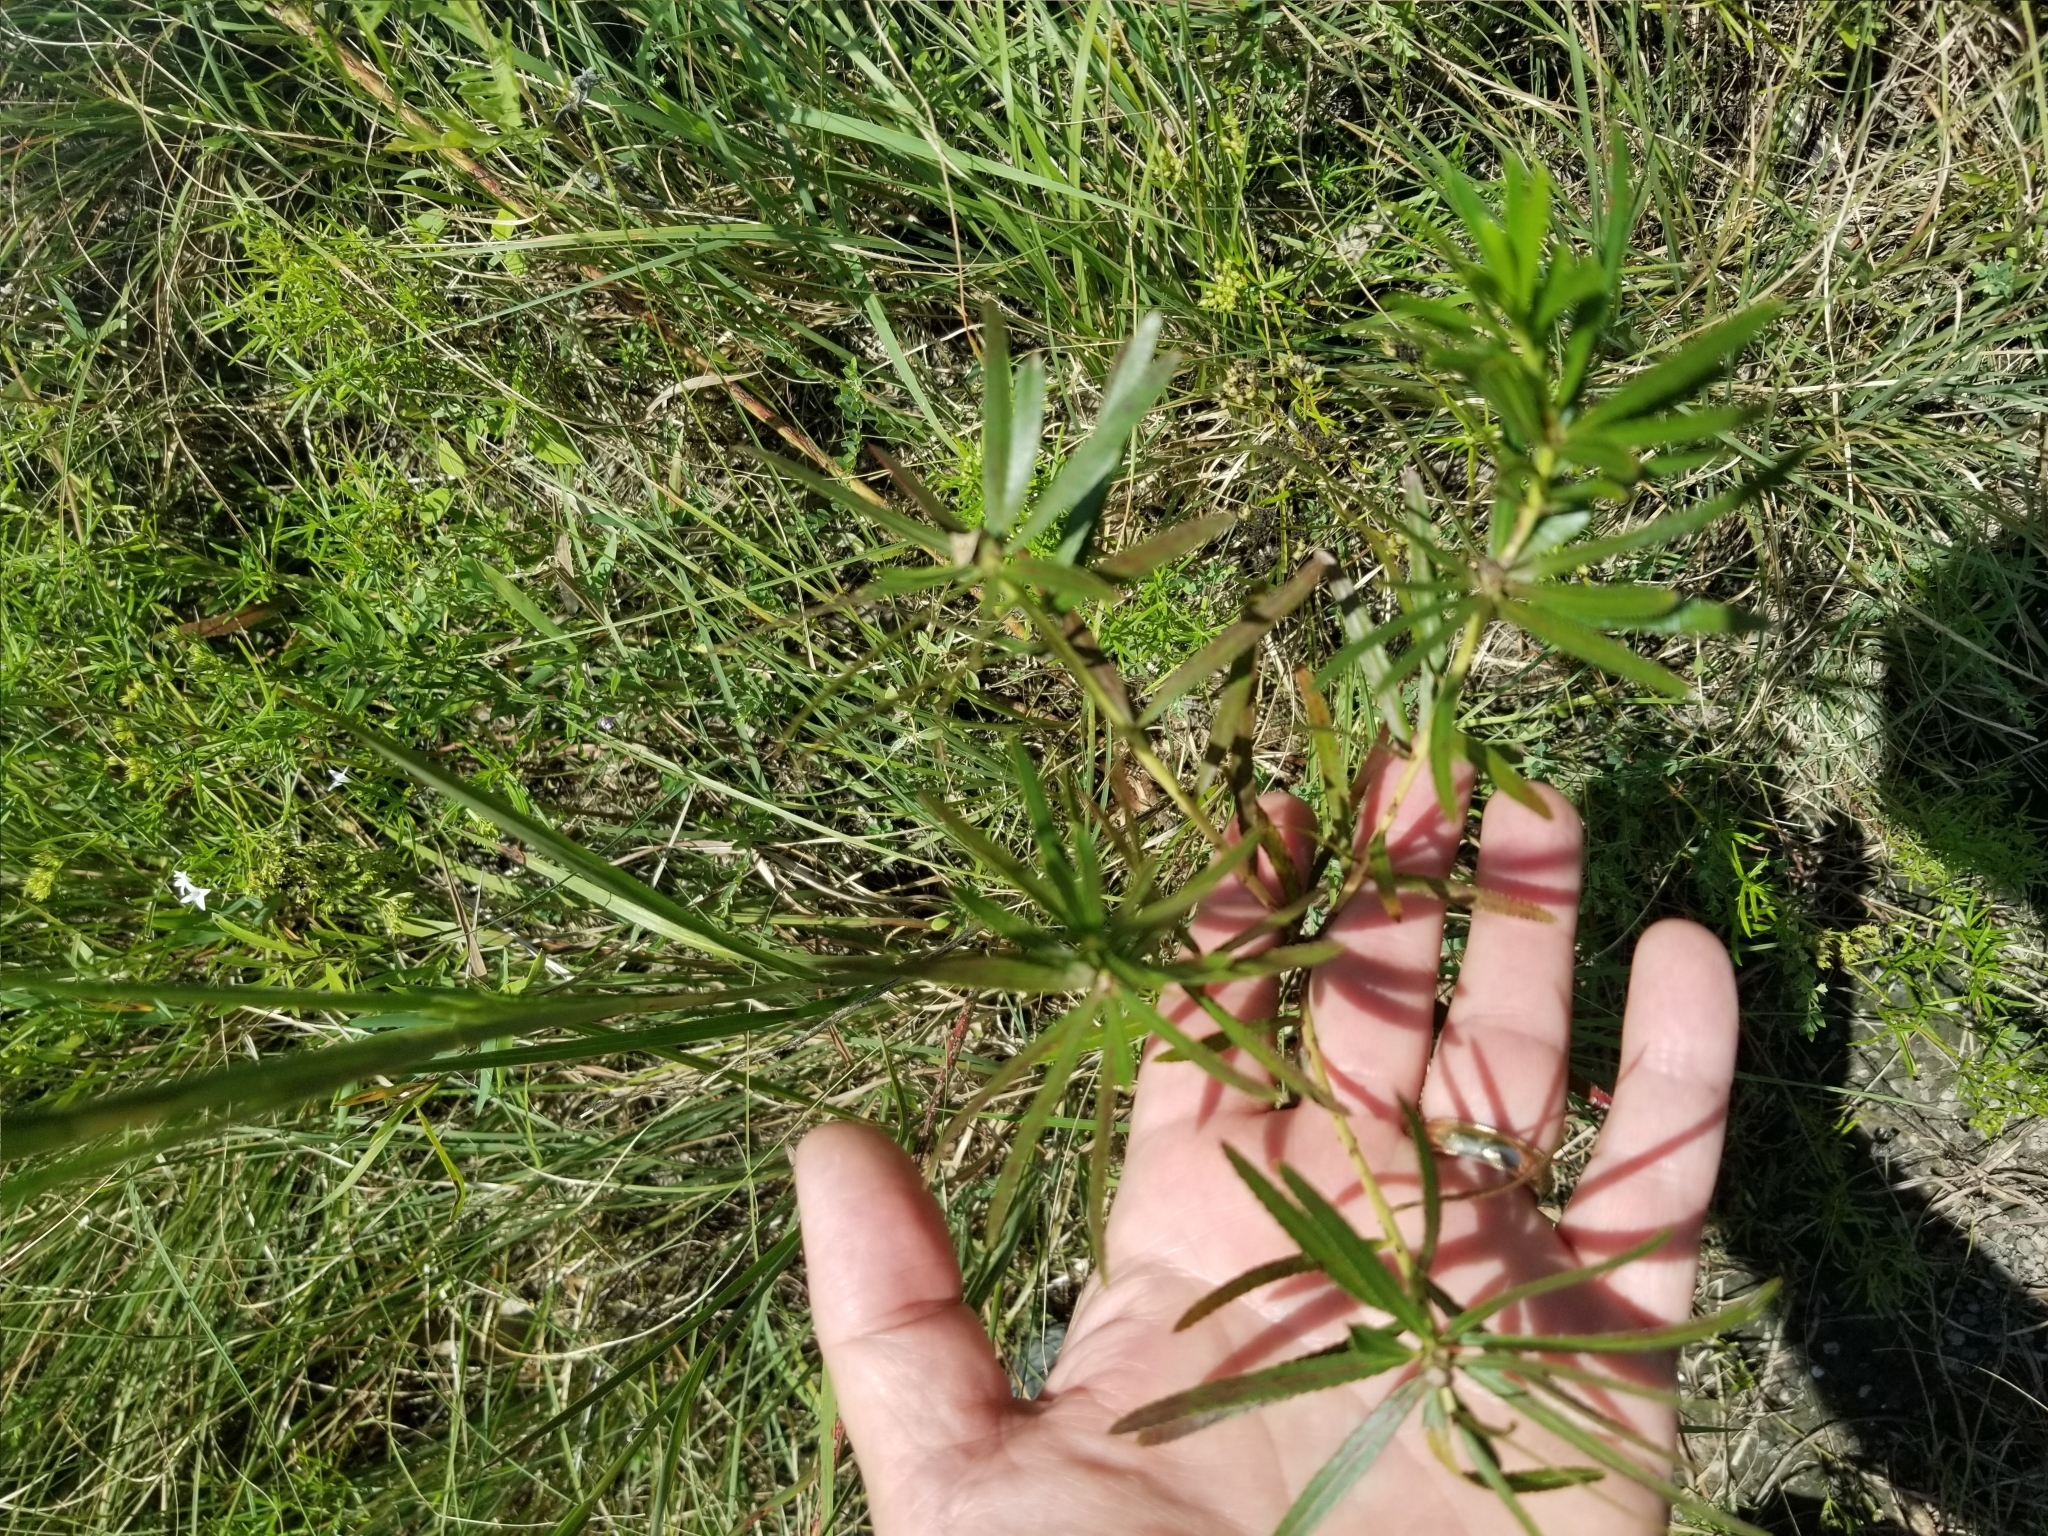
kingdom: Plantae
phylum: Tracheophyta
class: Magnoliopsida
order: Malpighiales
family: Euphorbiaceae
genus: Stillingia
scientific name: Stillingia texana
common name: Texas stillingia
